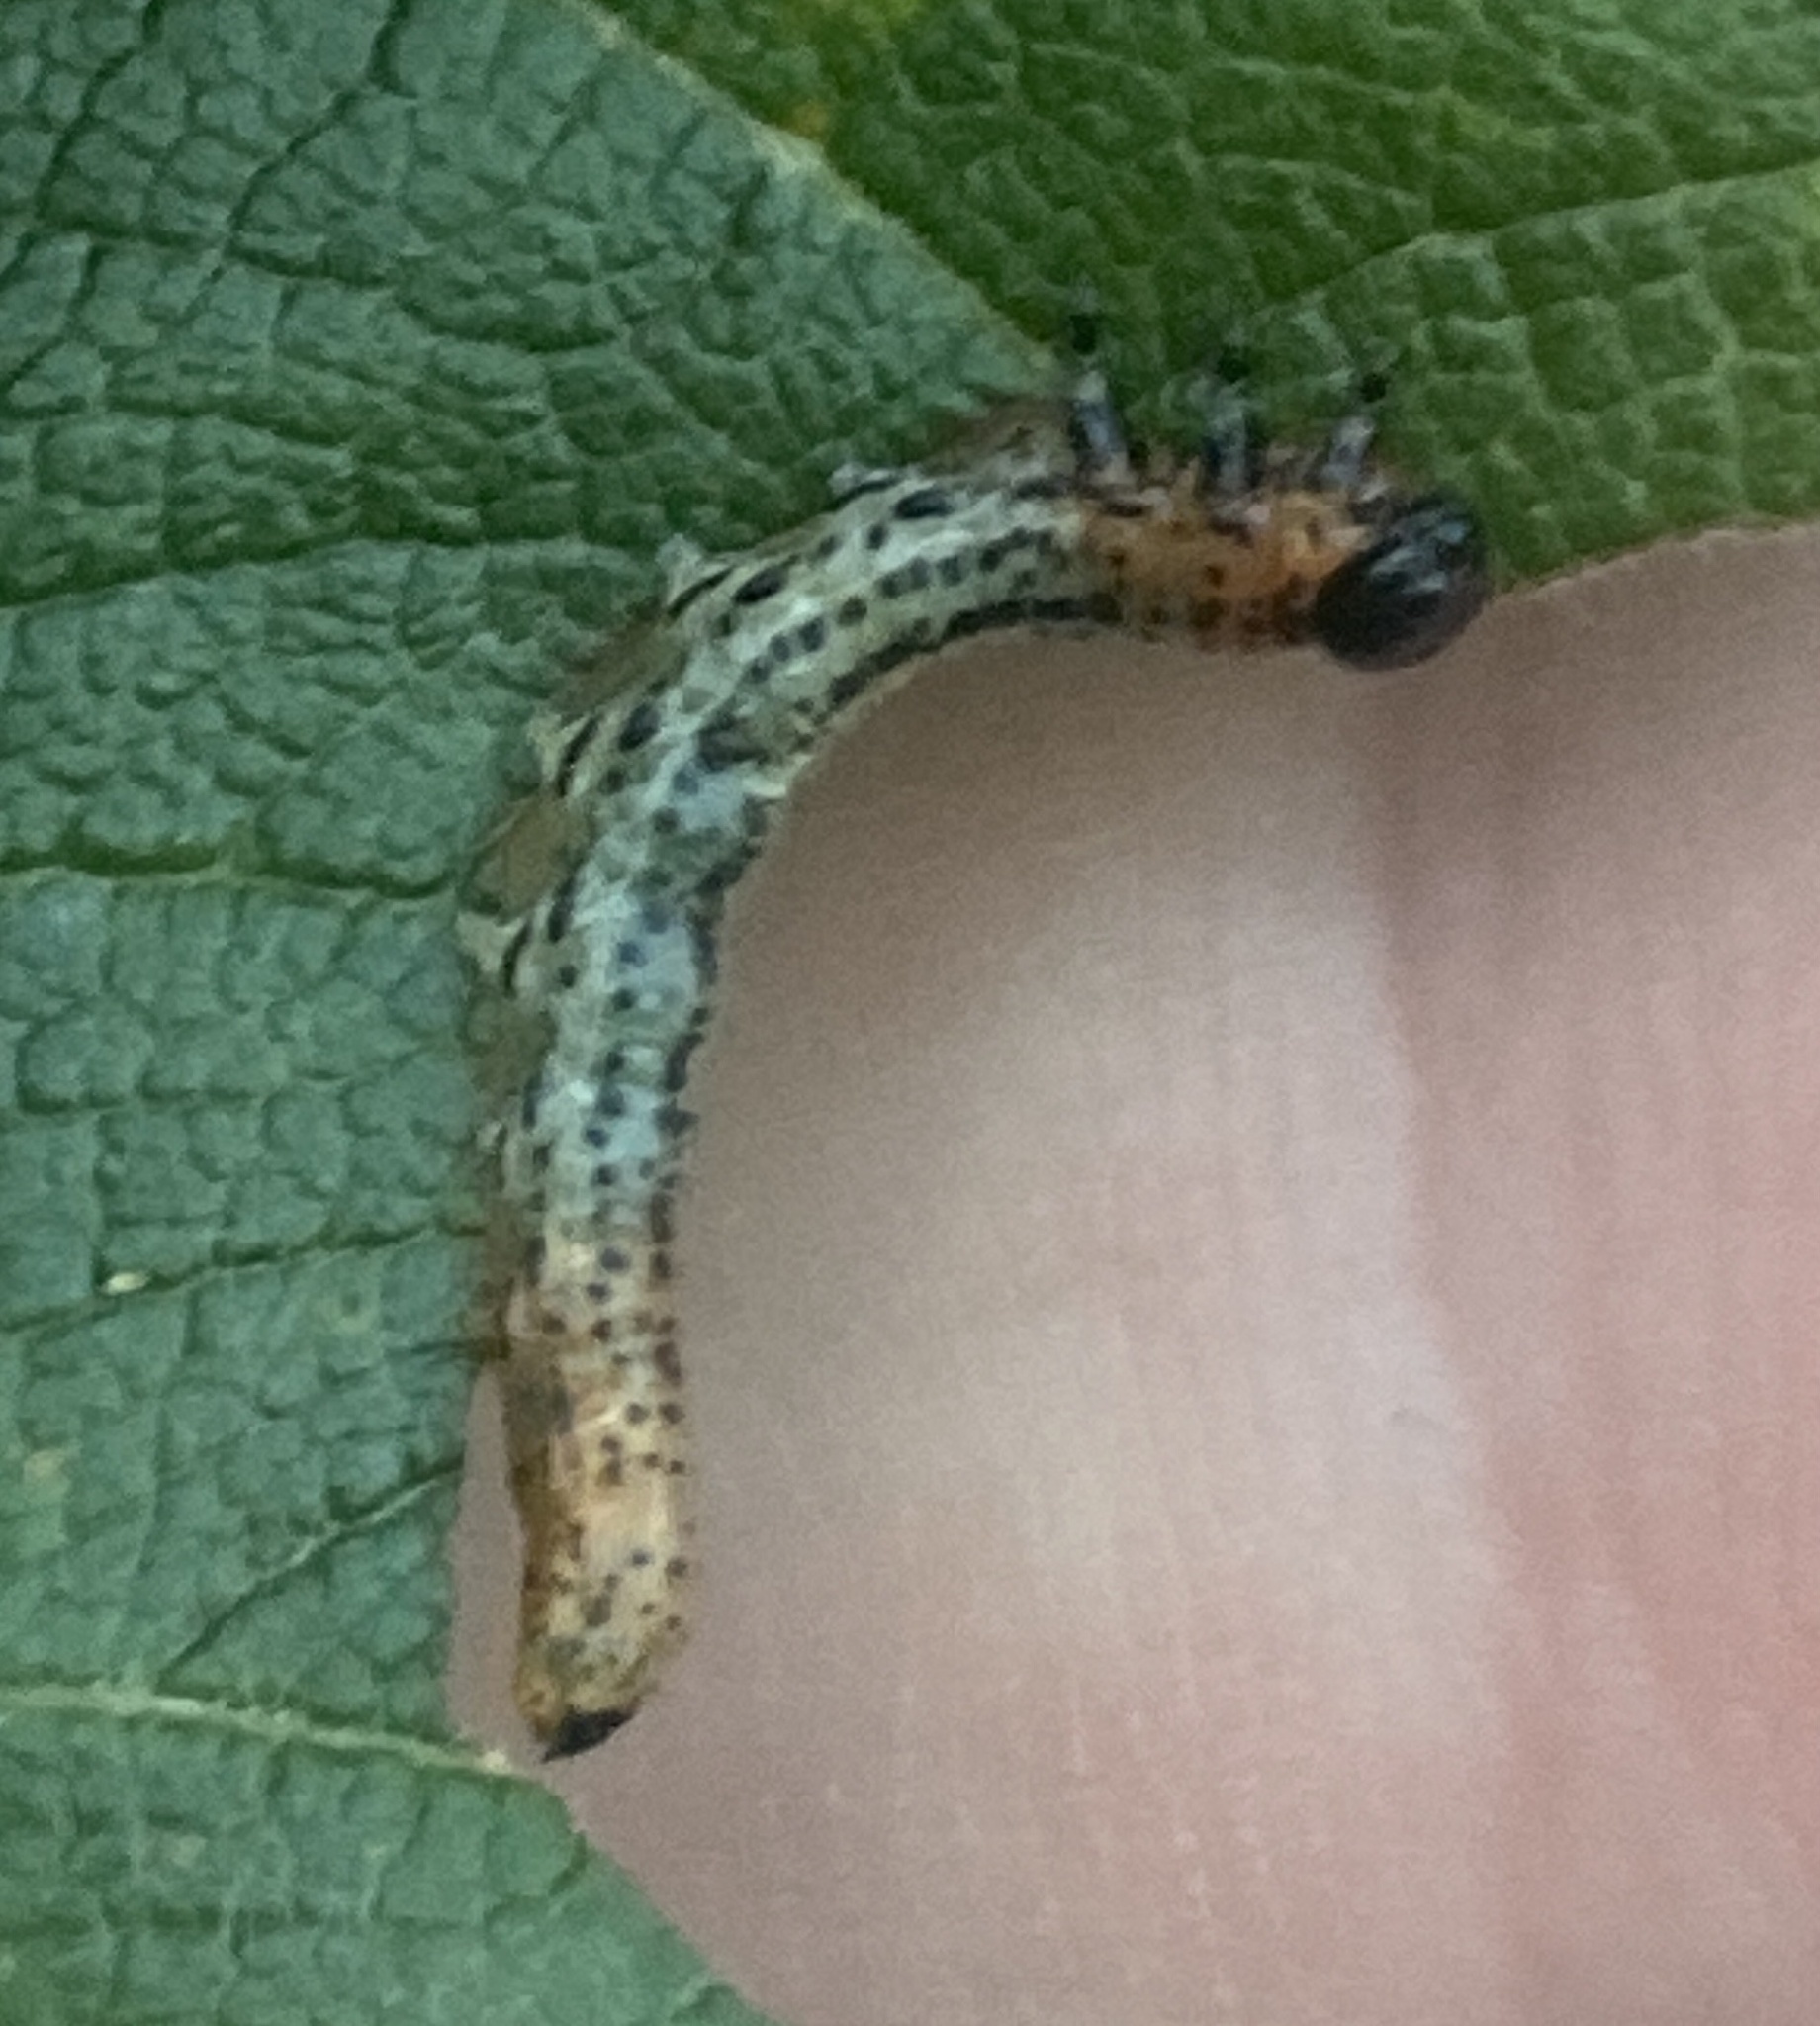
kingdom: Animalia
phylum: Arthropoda
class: Insecta
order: Hymenoptera
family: Tenthredinidae
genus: Nematus
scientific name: Nematus miliaris
